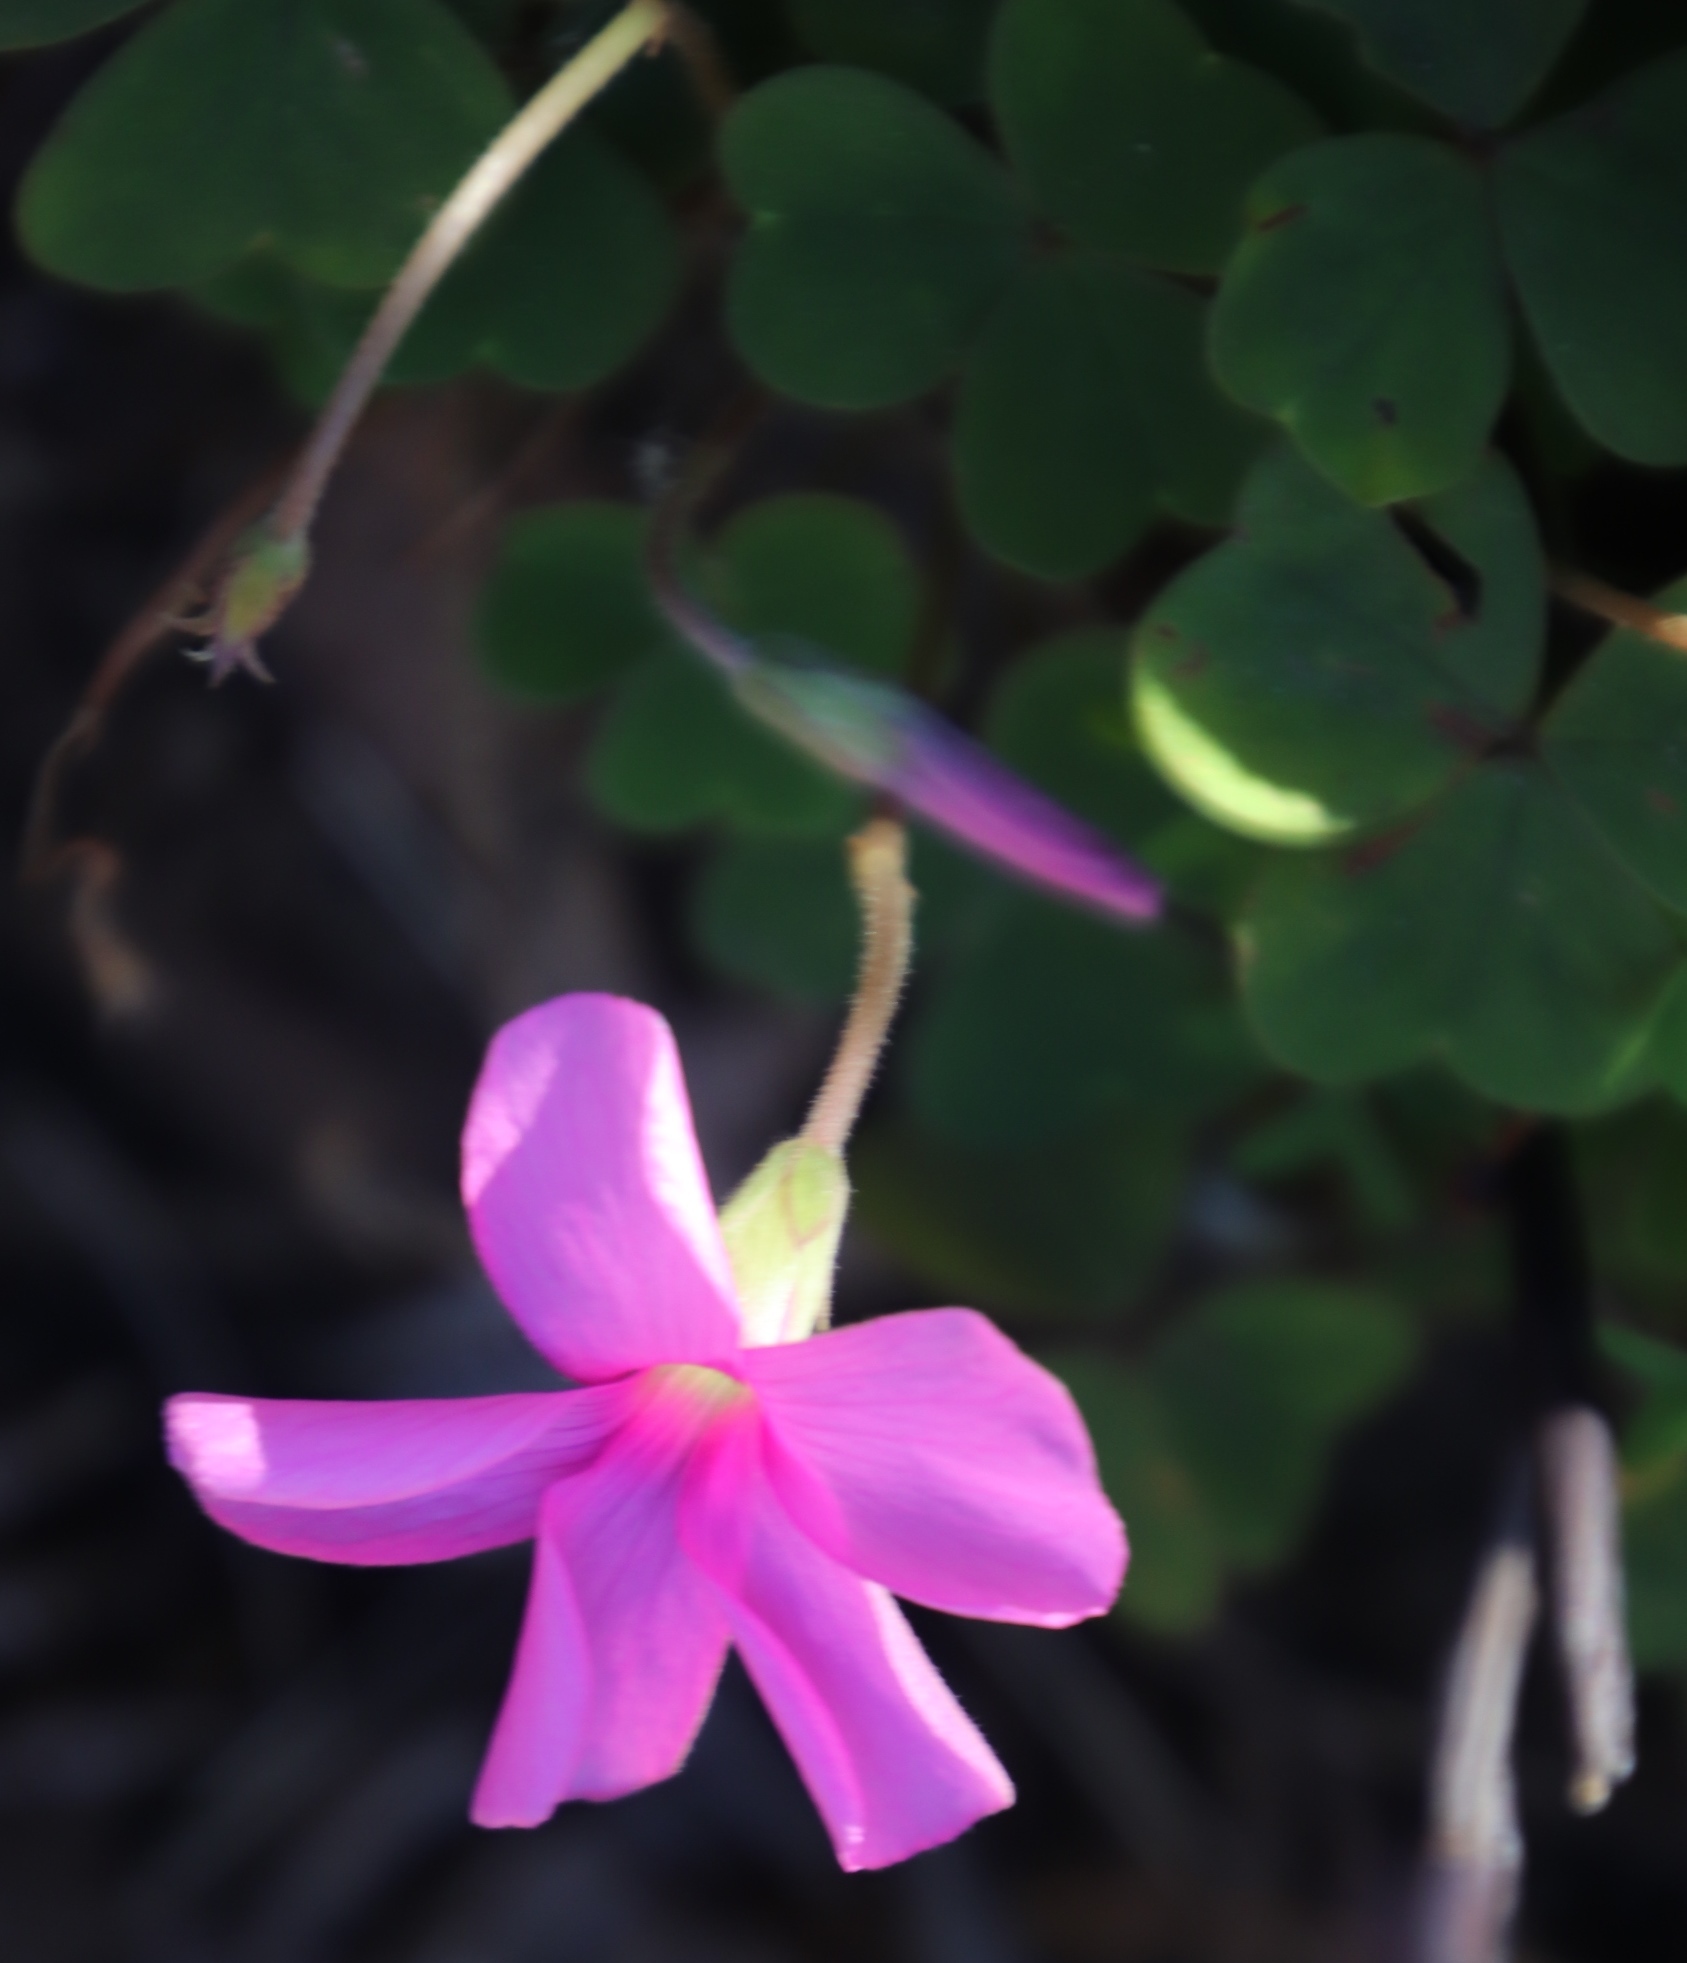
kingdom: Plantae
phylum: Tracheophyta
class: Magnoliopsida
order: Oxalidales
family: Oxalidaceae
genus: Oxalis
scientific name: Oxalis lanata
